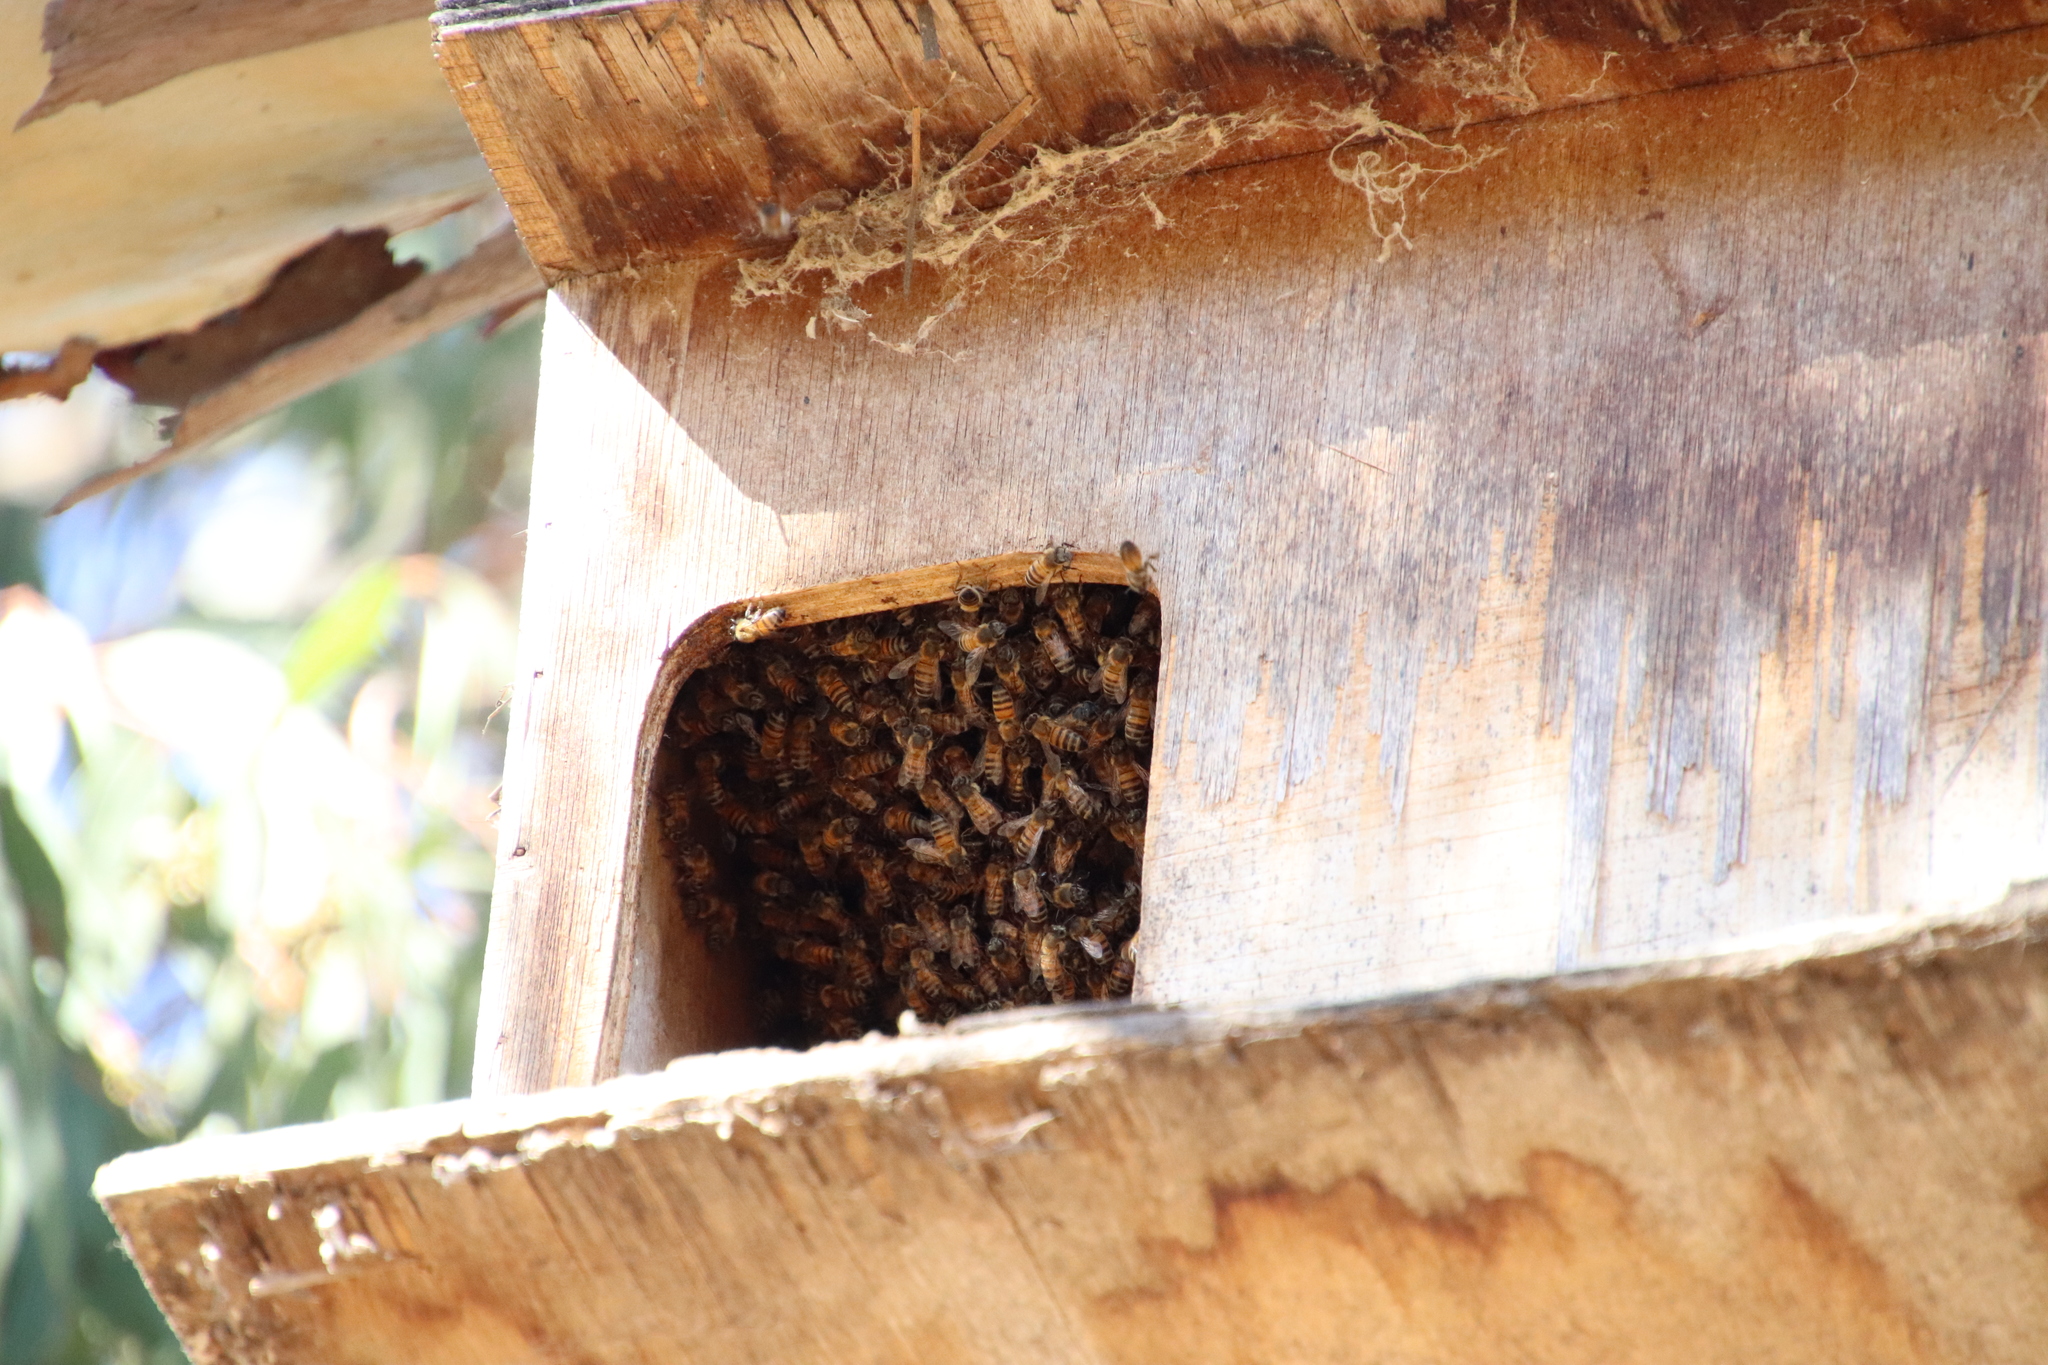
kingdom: Animalia
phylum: Arthropoda
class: Insecta
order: Hymenoptera
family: Apidae
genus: Apis
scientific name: Apis mellifera
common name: Honey bee
